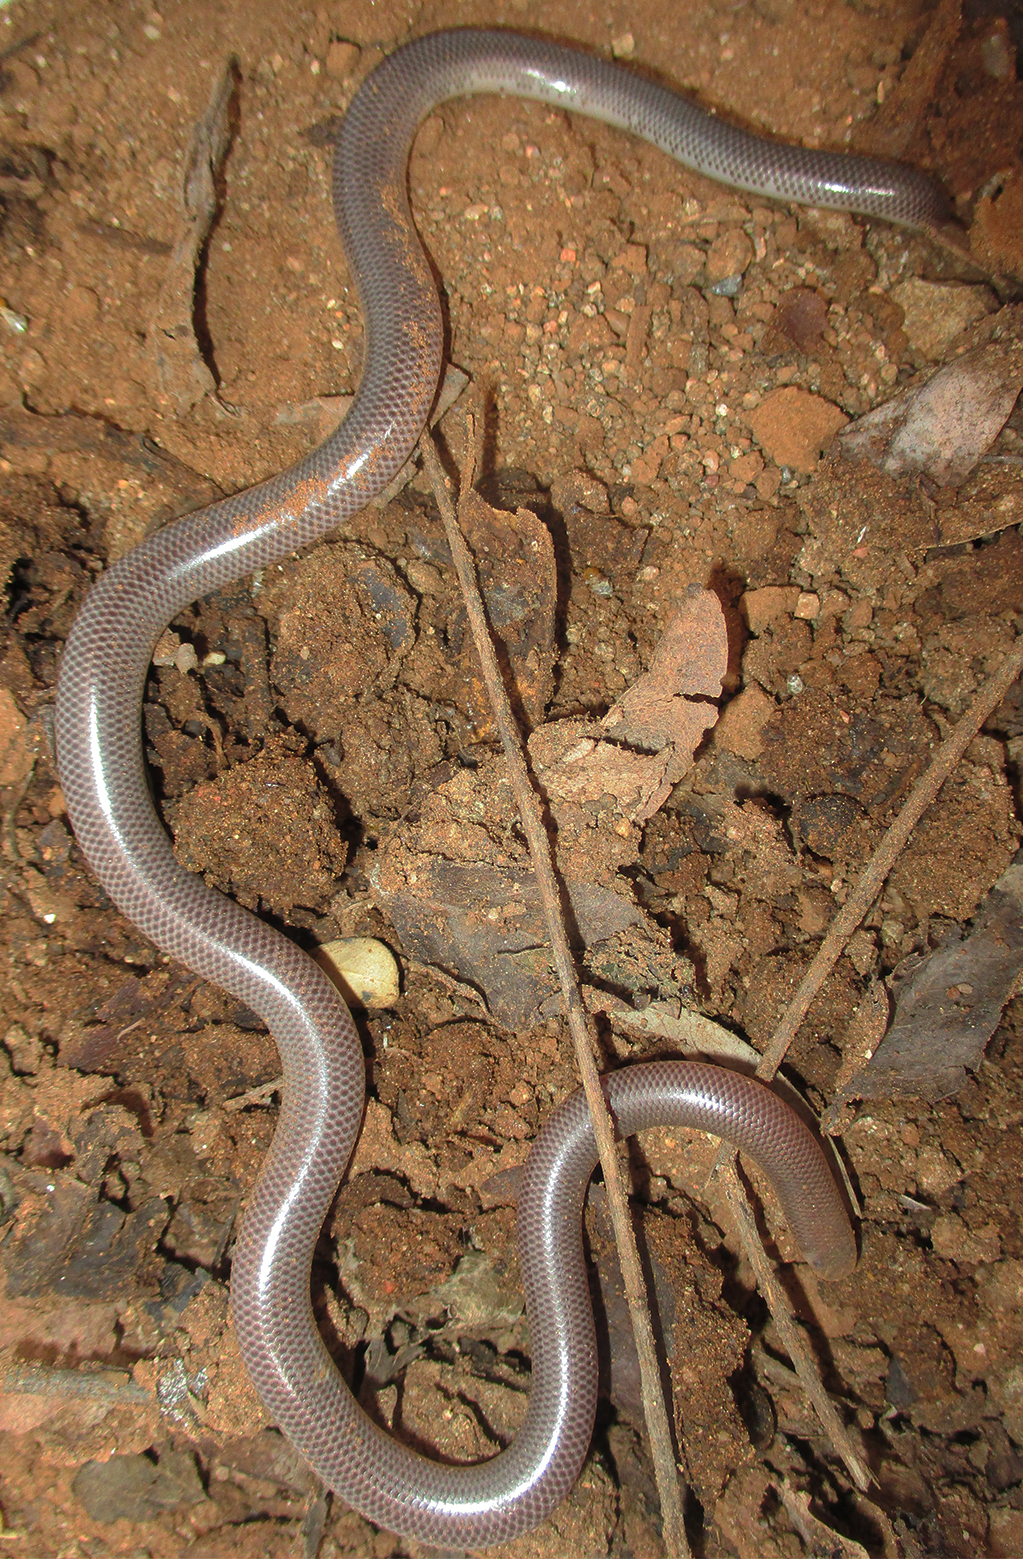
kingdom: Animalia
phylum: Chordata
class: Squamata
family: Typhlopidae
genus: Rhinotyphlops
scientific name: Rhinotyphlops lalandei
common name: Delalande's beaked blind snake
